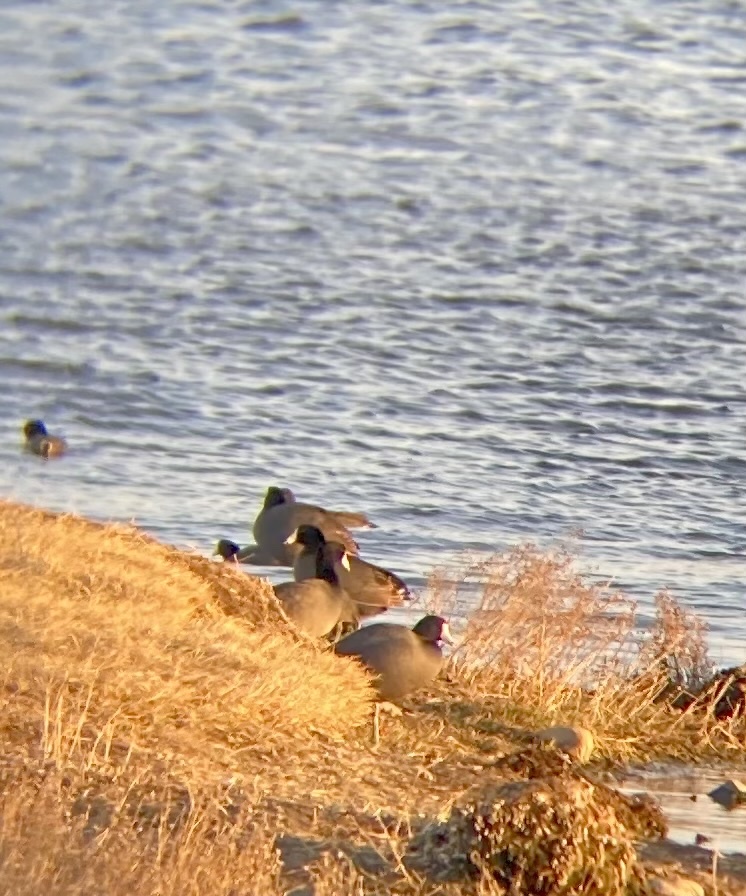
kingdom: Animalia
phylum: Chordata
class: Aves
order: Gruiformes
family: Rallidae
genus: Fulica
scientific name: Fulica americana
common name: American coot
